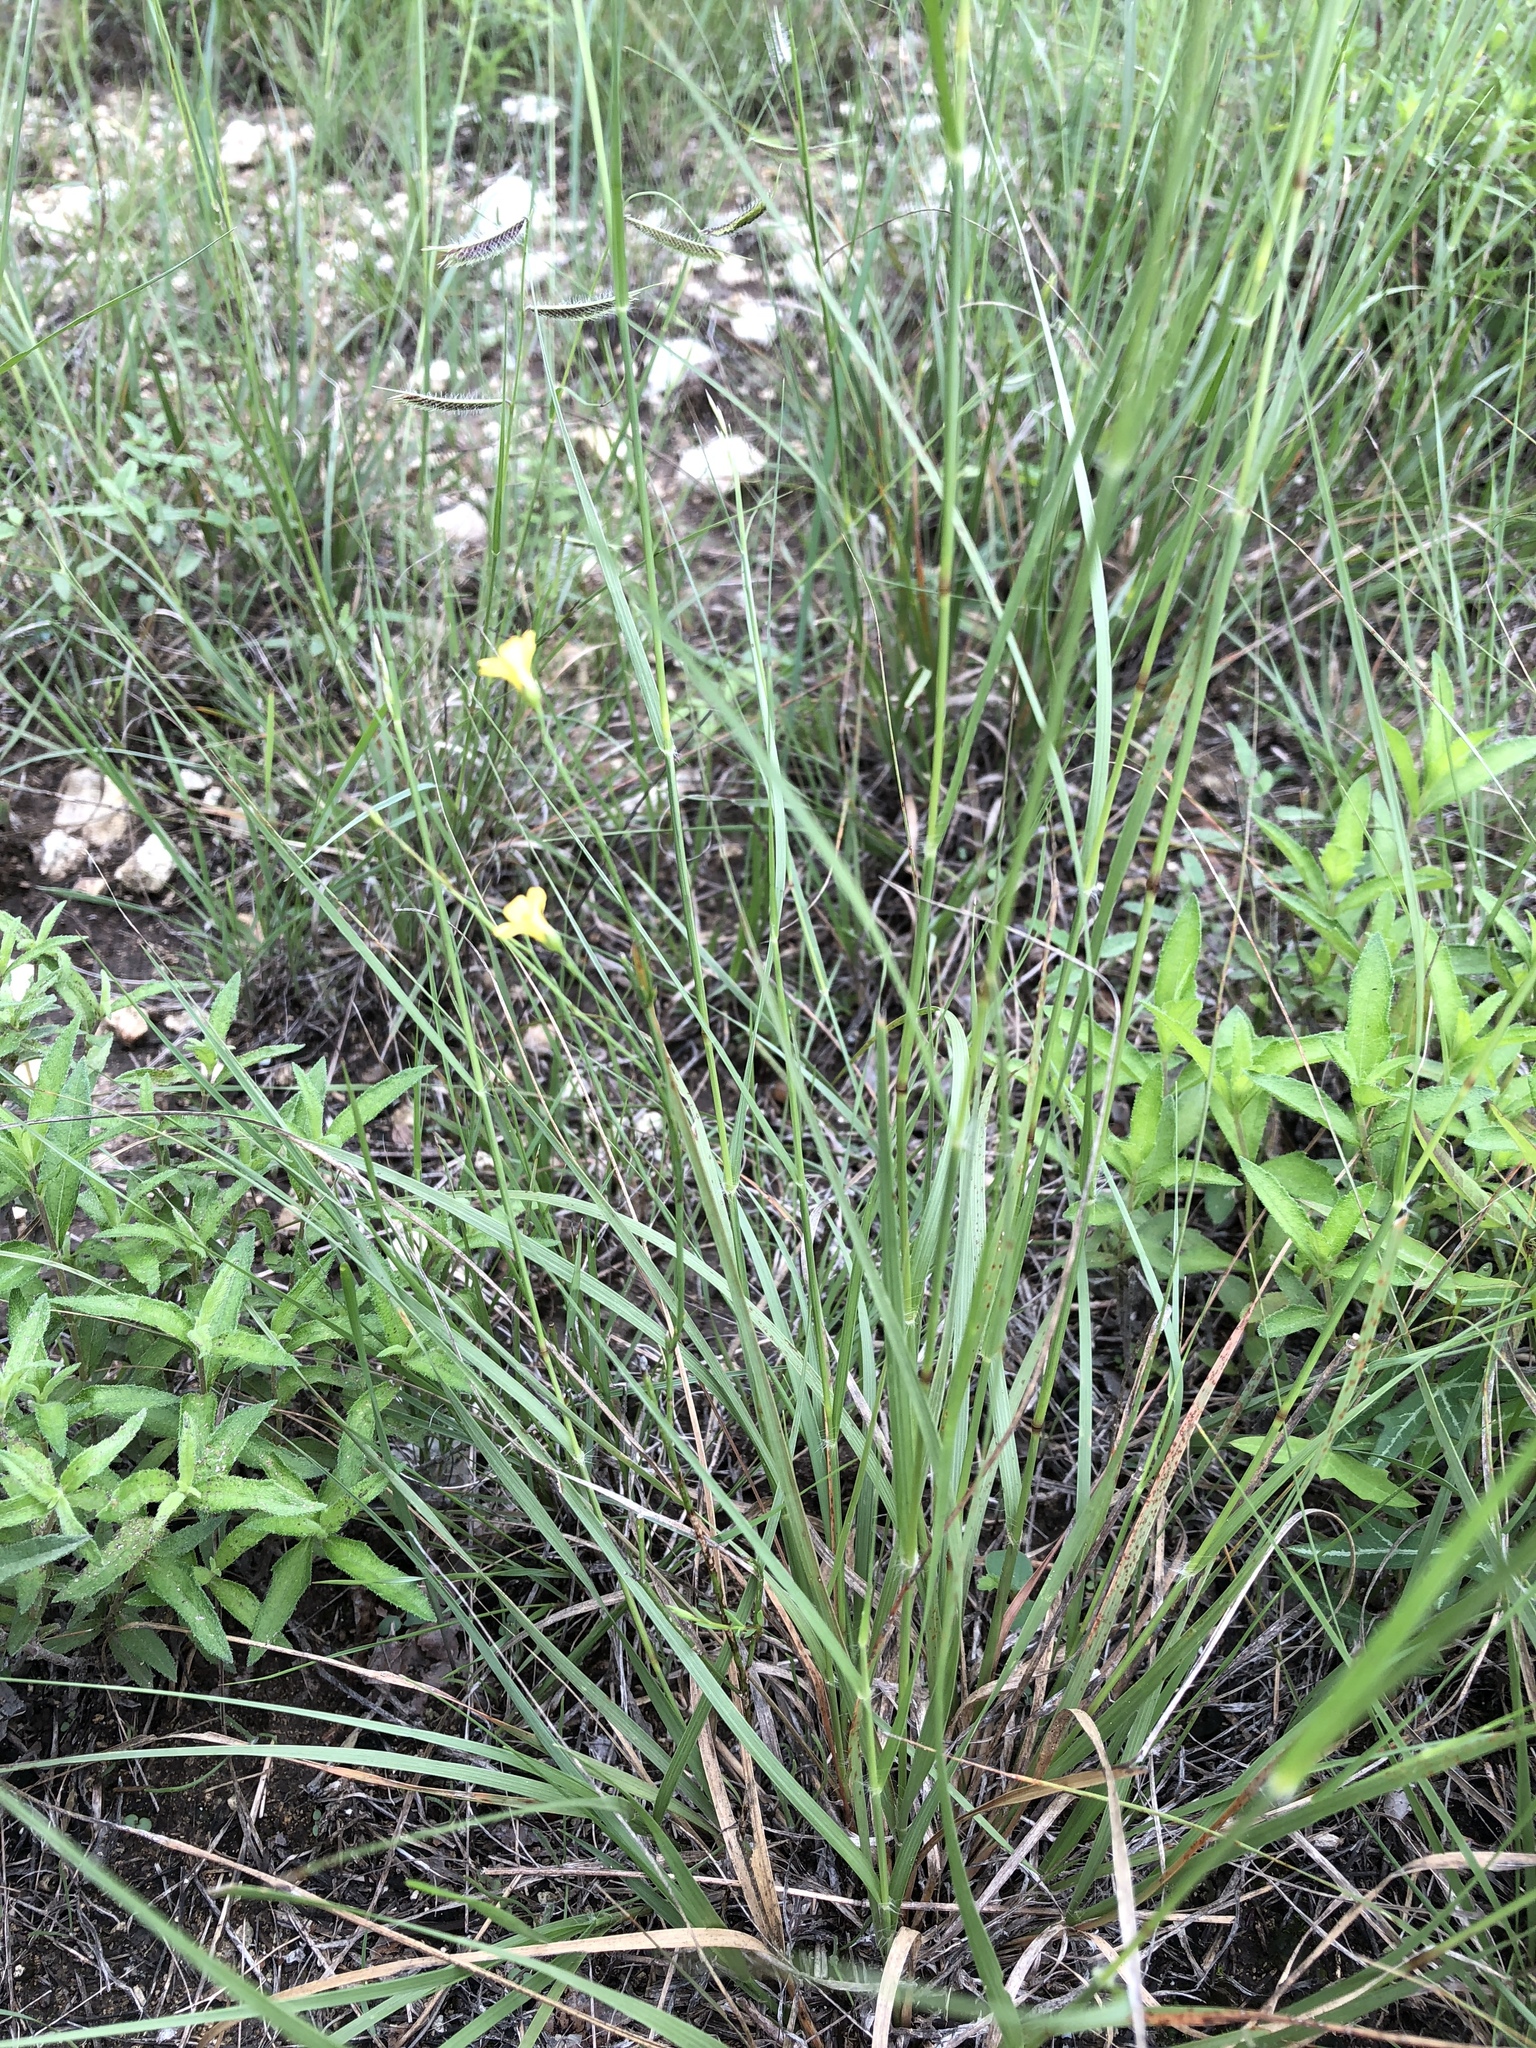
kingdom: Plantae
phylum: Tracheophyta
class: Magnoliopsida
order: Malpighiales
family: Linaceae
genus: Linum
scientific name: Linum rupestre
